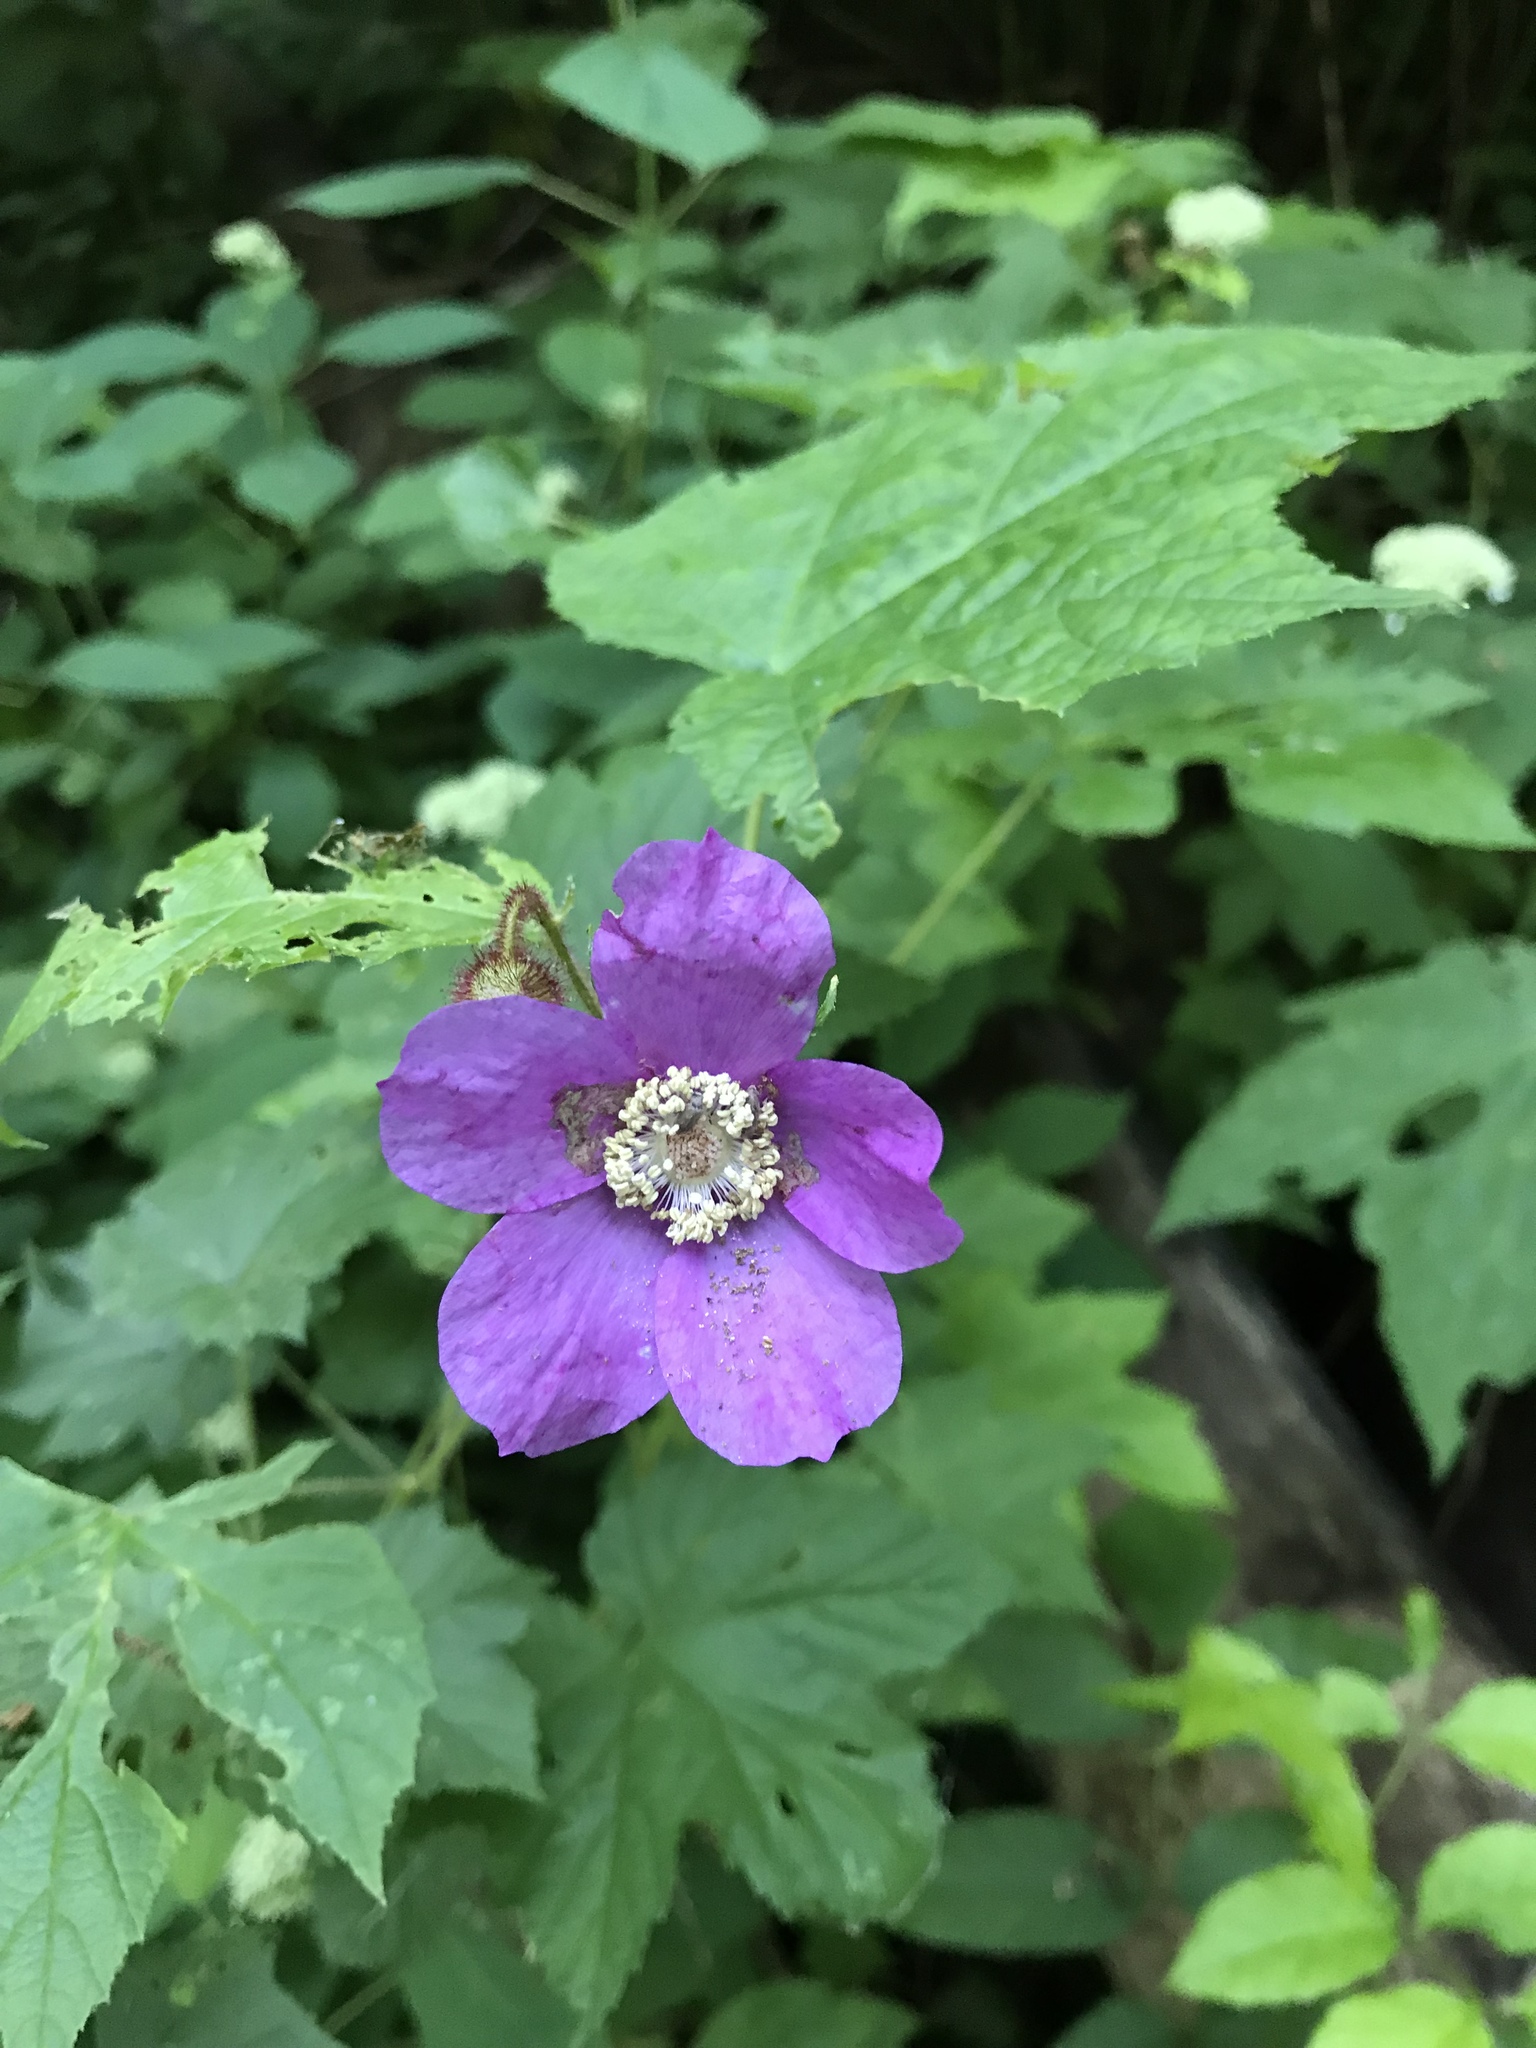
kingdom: Plantae
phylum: Tracheophyta
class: Magnoliopsida
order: Rosales
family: Rosaceae
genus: Rubus
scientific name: Rubus odoratus
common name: Purple-flowered raspberry
